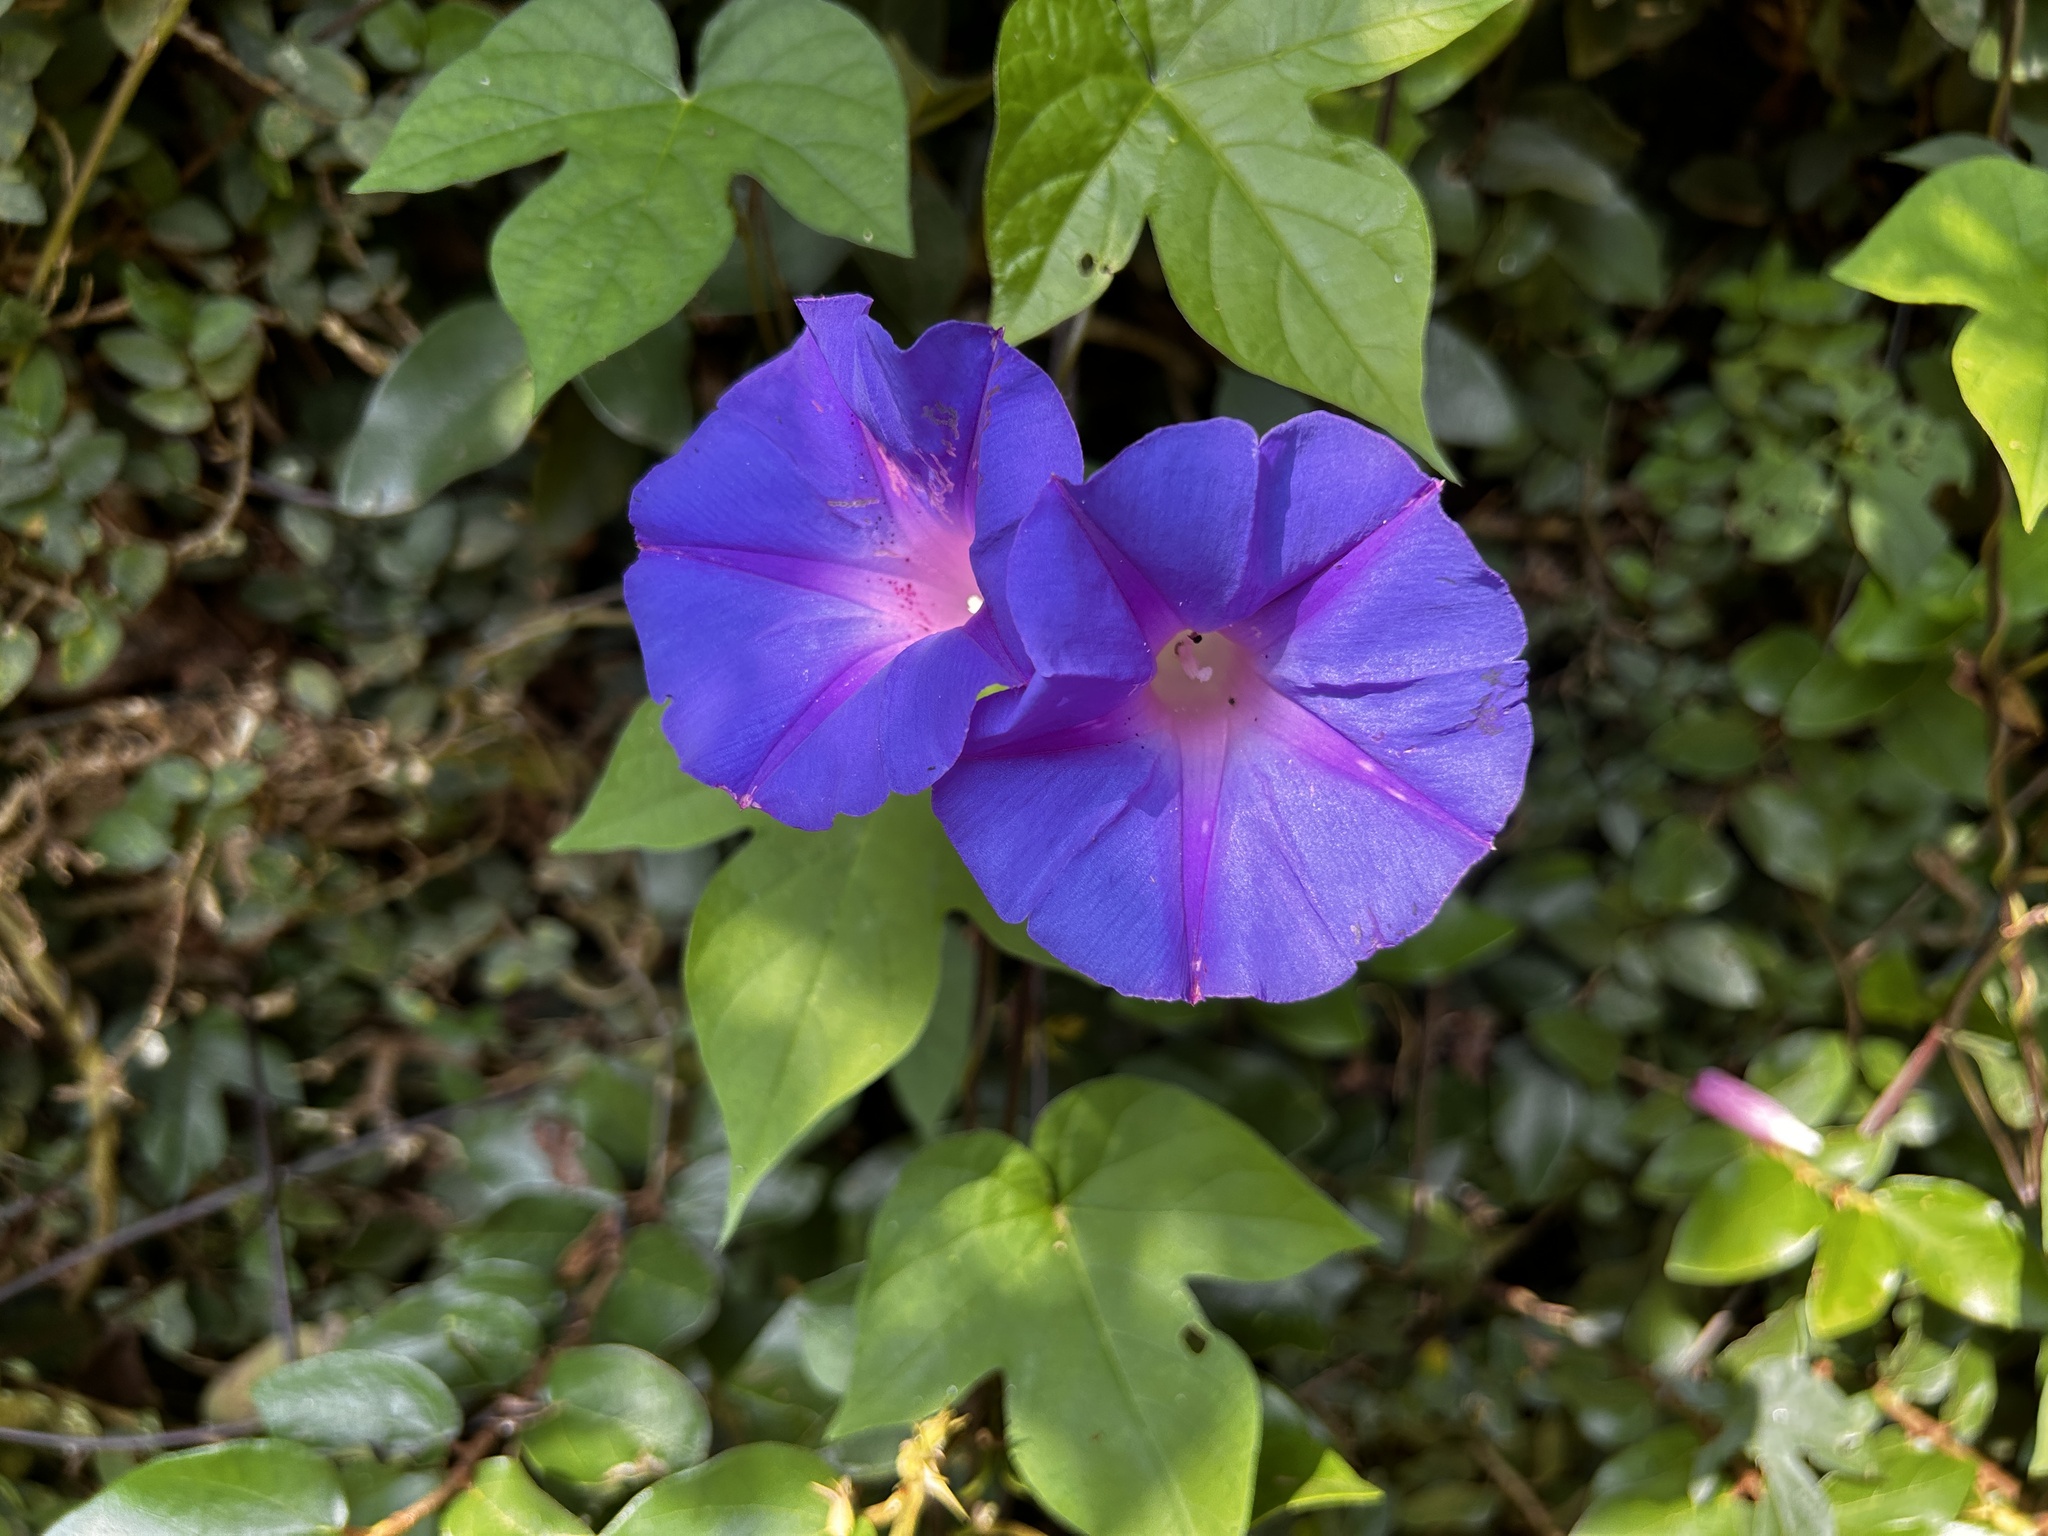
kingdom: Plantae
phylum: Tracheophyta
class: Magnoliopsida
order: Solanales
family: Convolvulaceae
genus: Ipomoea
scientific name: Ipomoea indica
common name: Blue dawnflower
